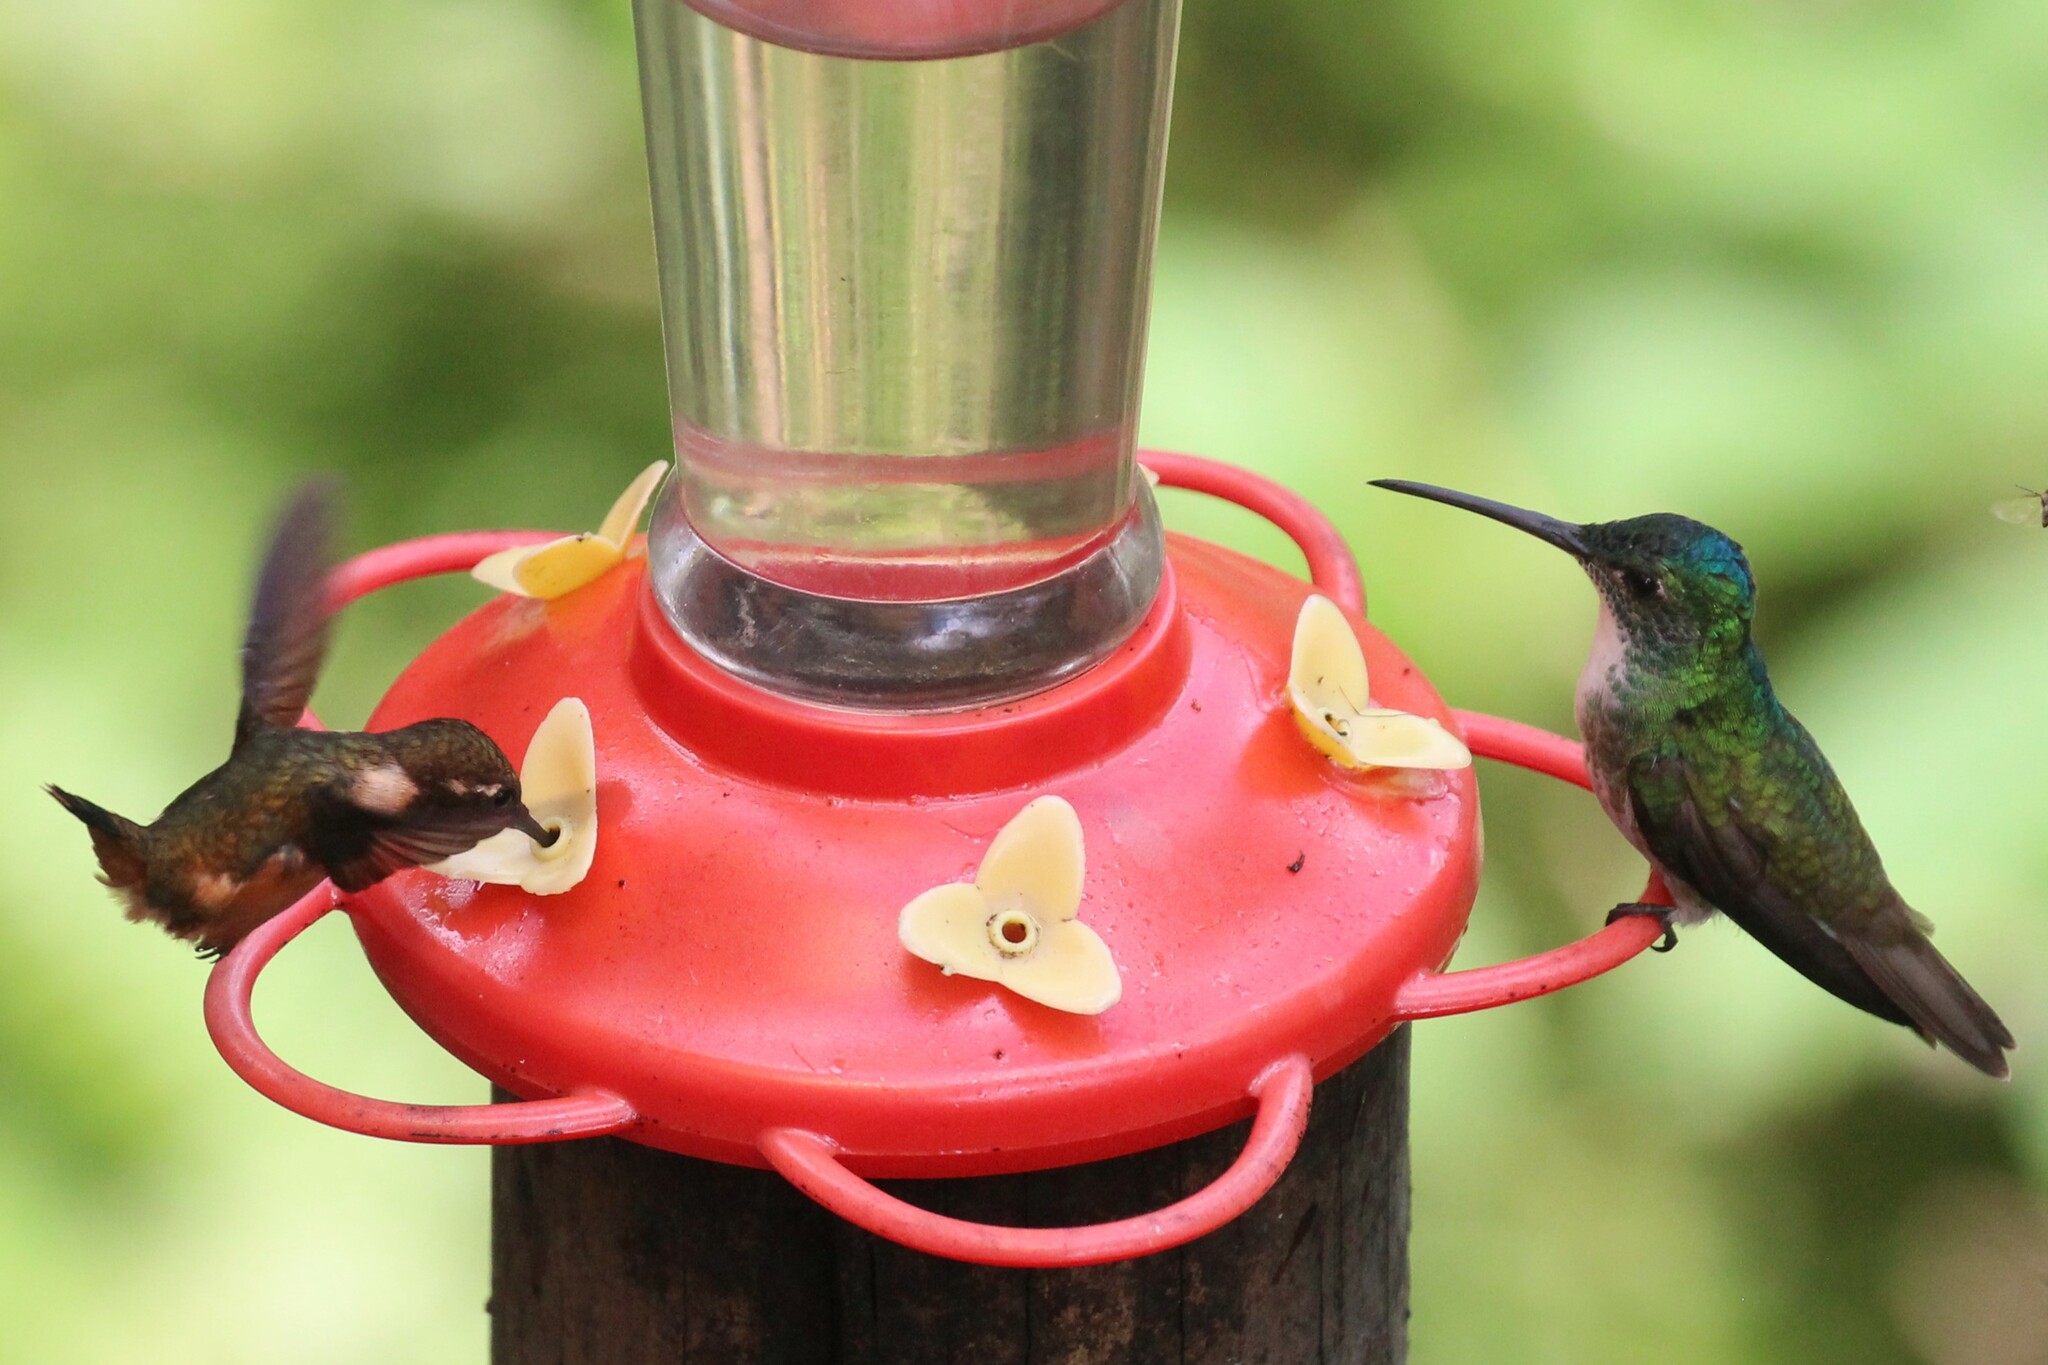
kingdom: Animalia
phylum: Chordata
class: Aves
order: Apodiformes
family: Trochilidae
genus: Uranomitra
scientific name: Uranomitra franciae
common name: Andean emerald
